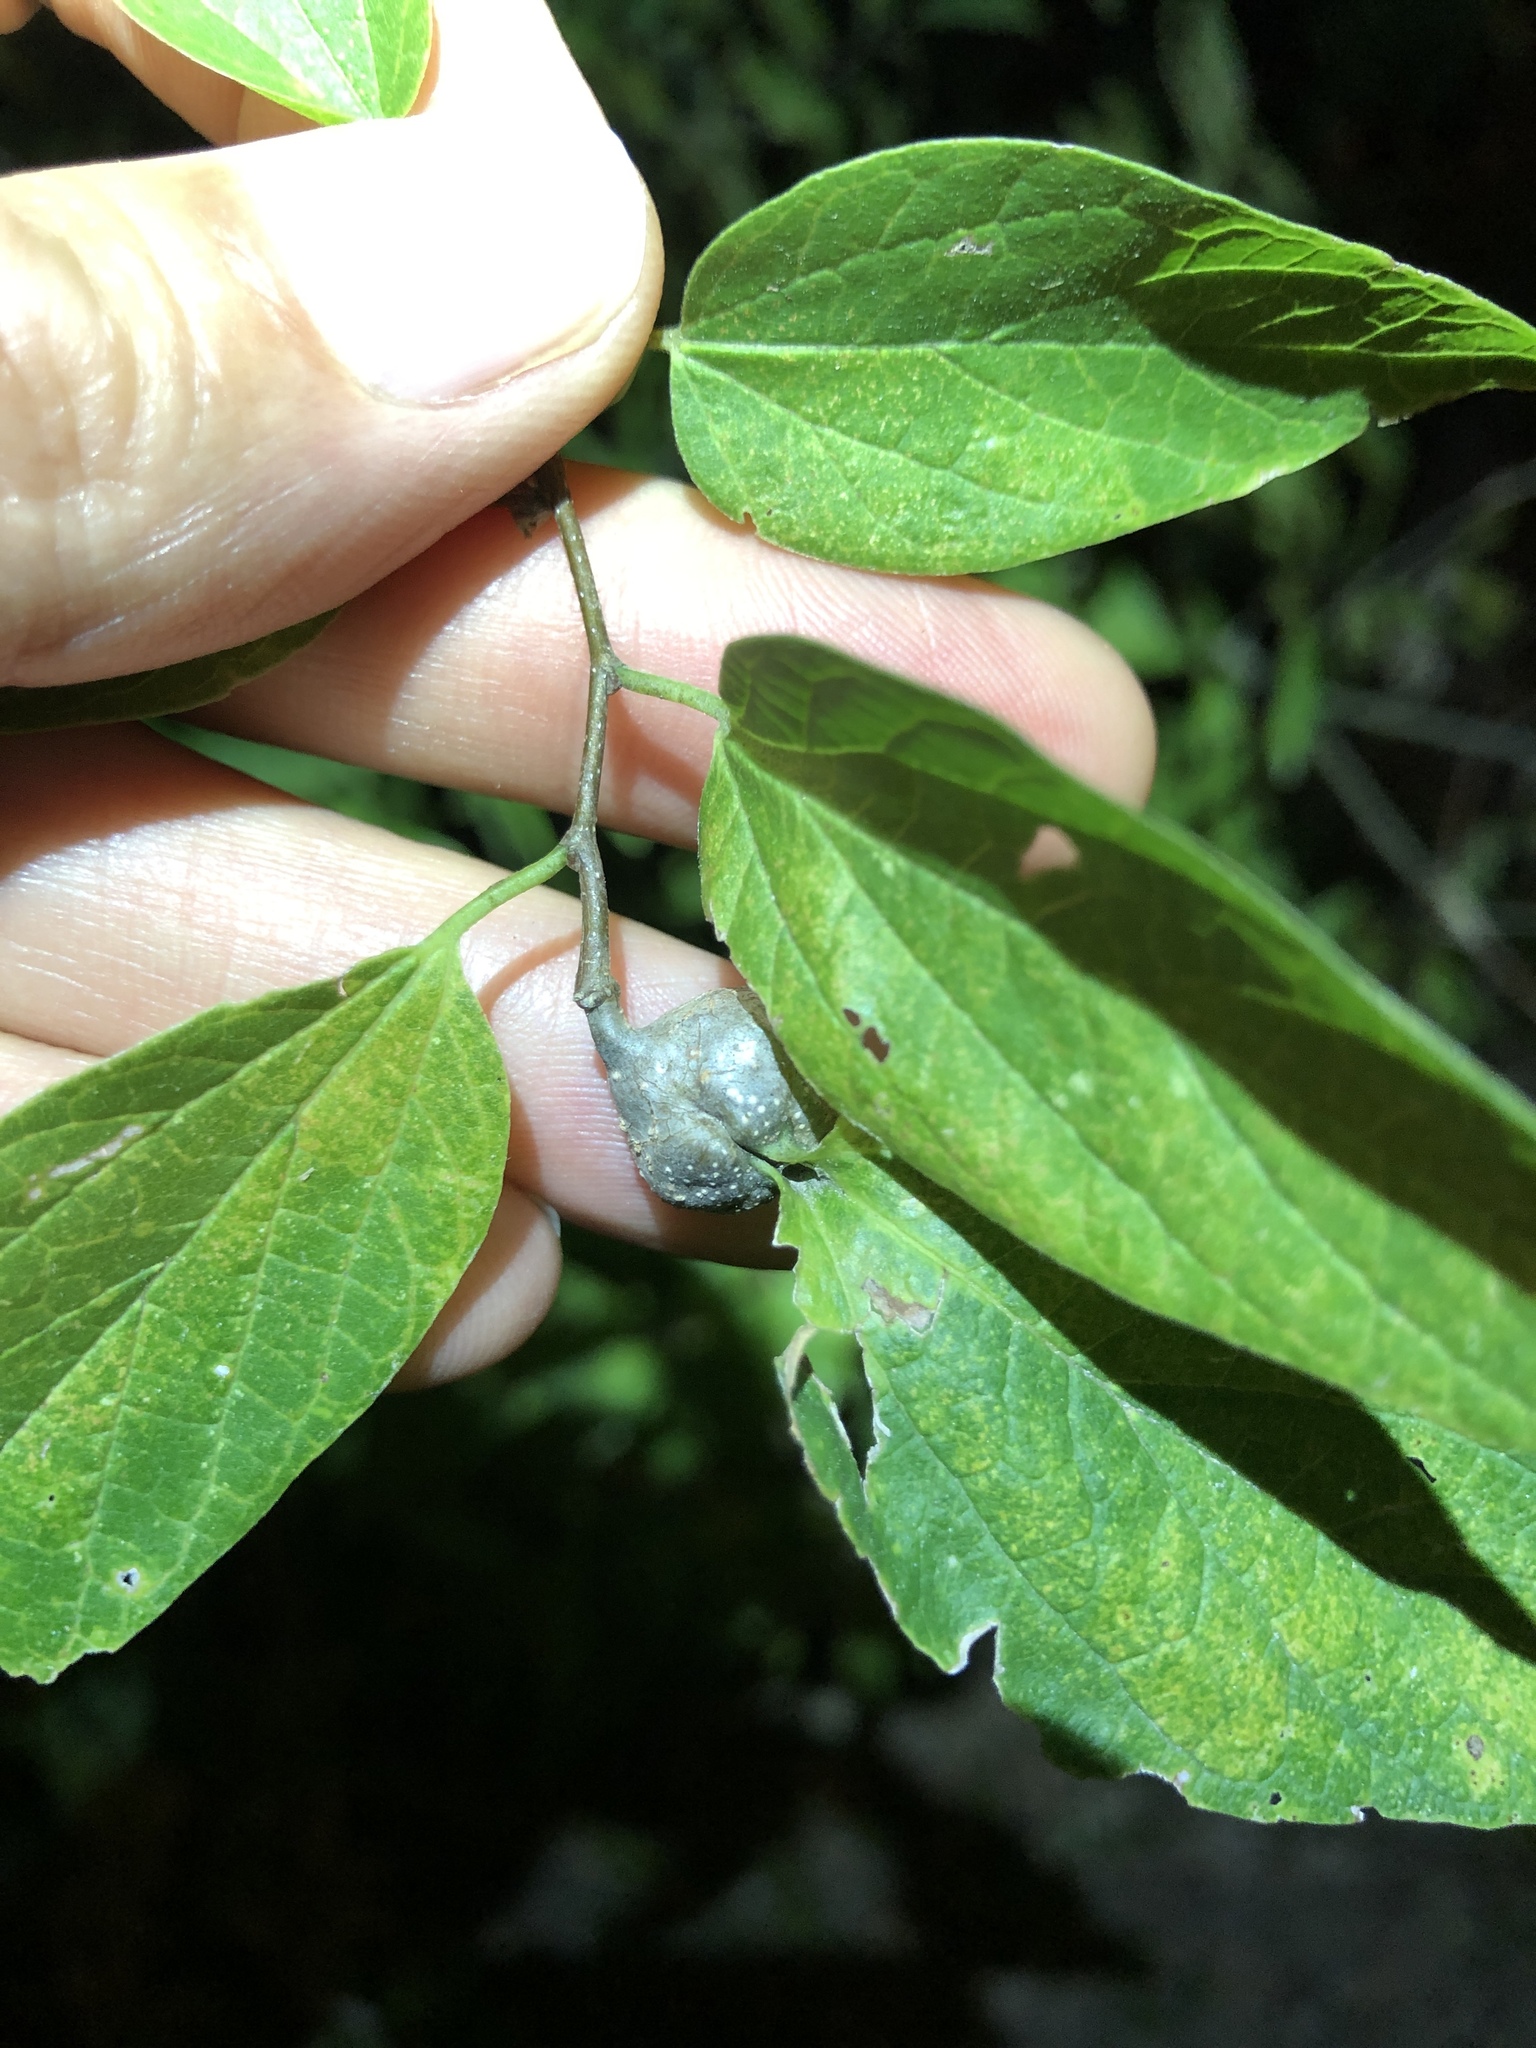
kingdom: Animalia
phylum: Arthropoda
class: Insecta
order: Hemiptera
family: Aphalaridae
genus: Pachypsylla
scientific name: Pachypsylla venusta
